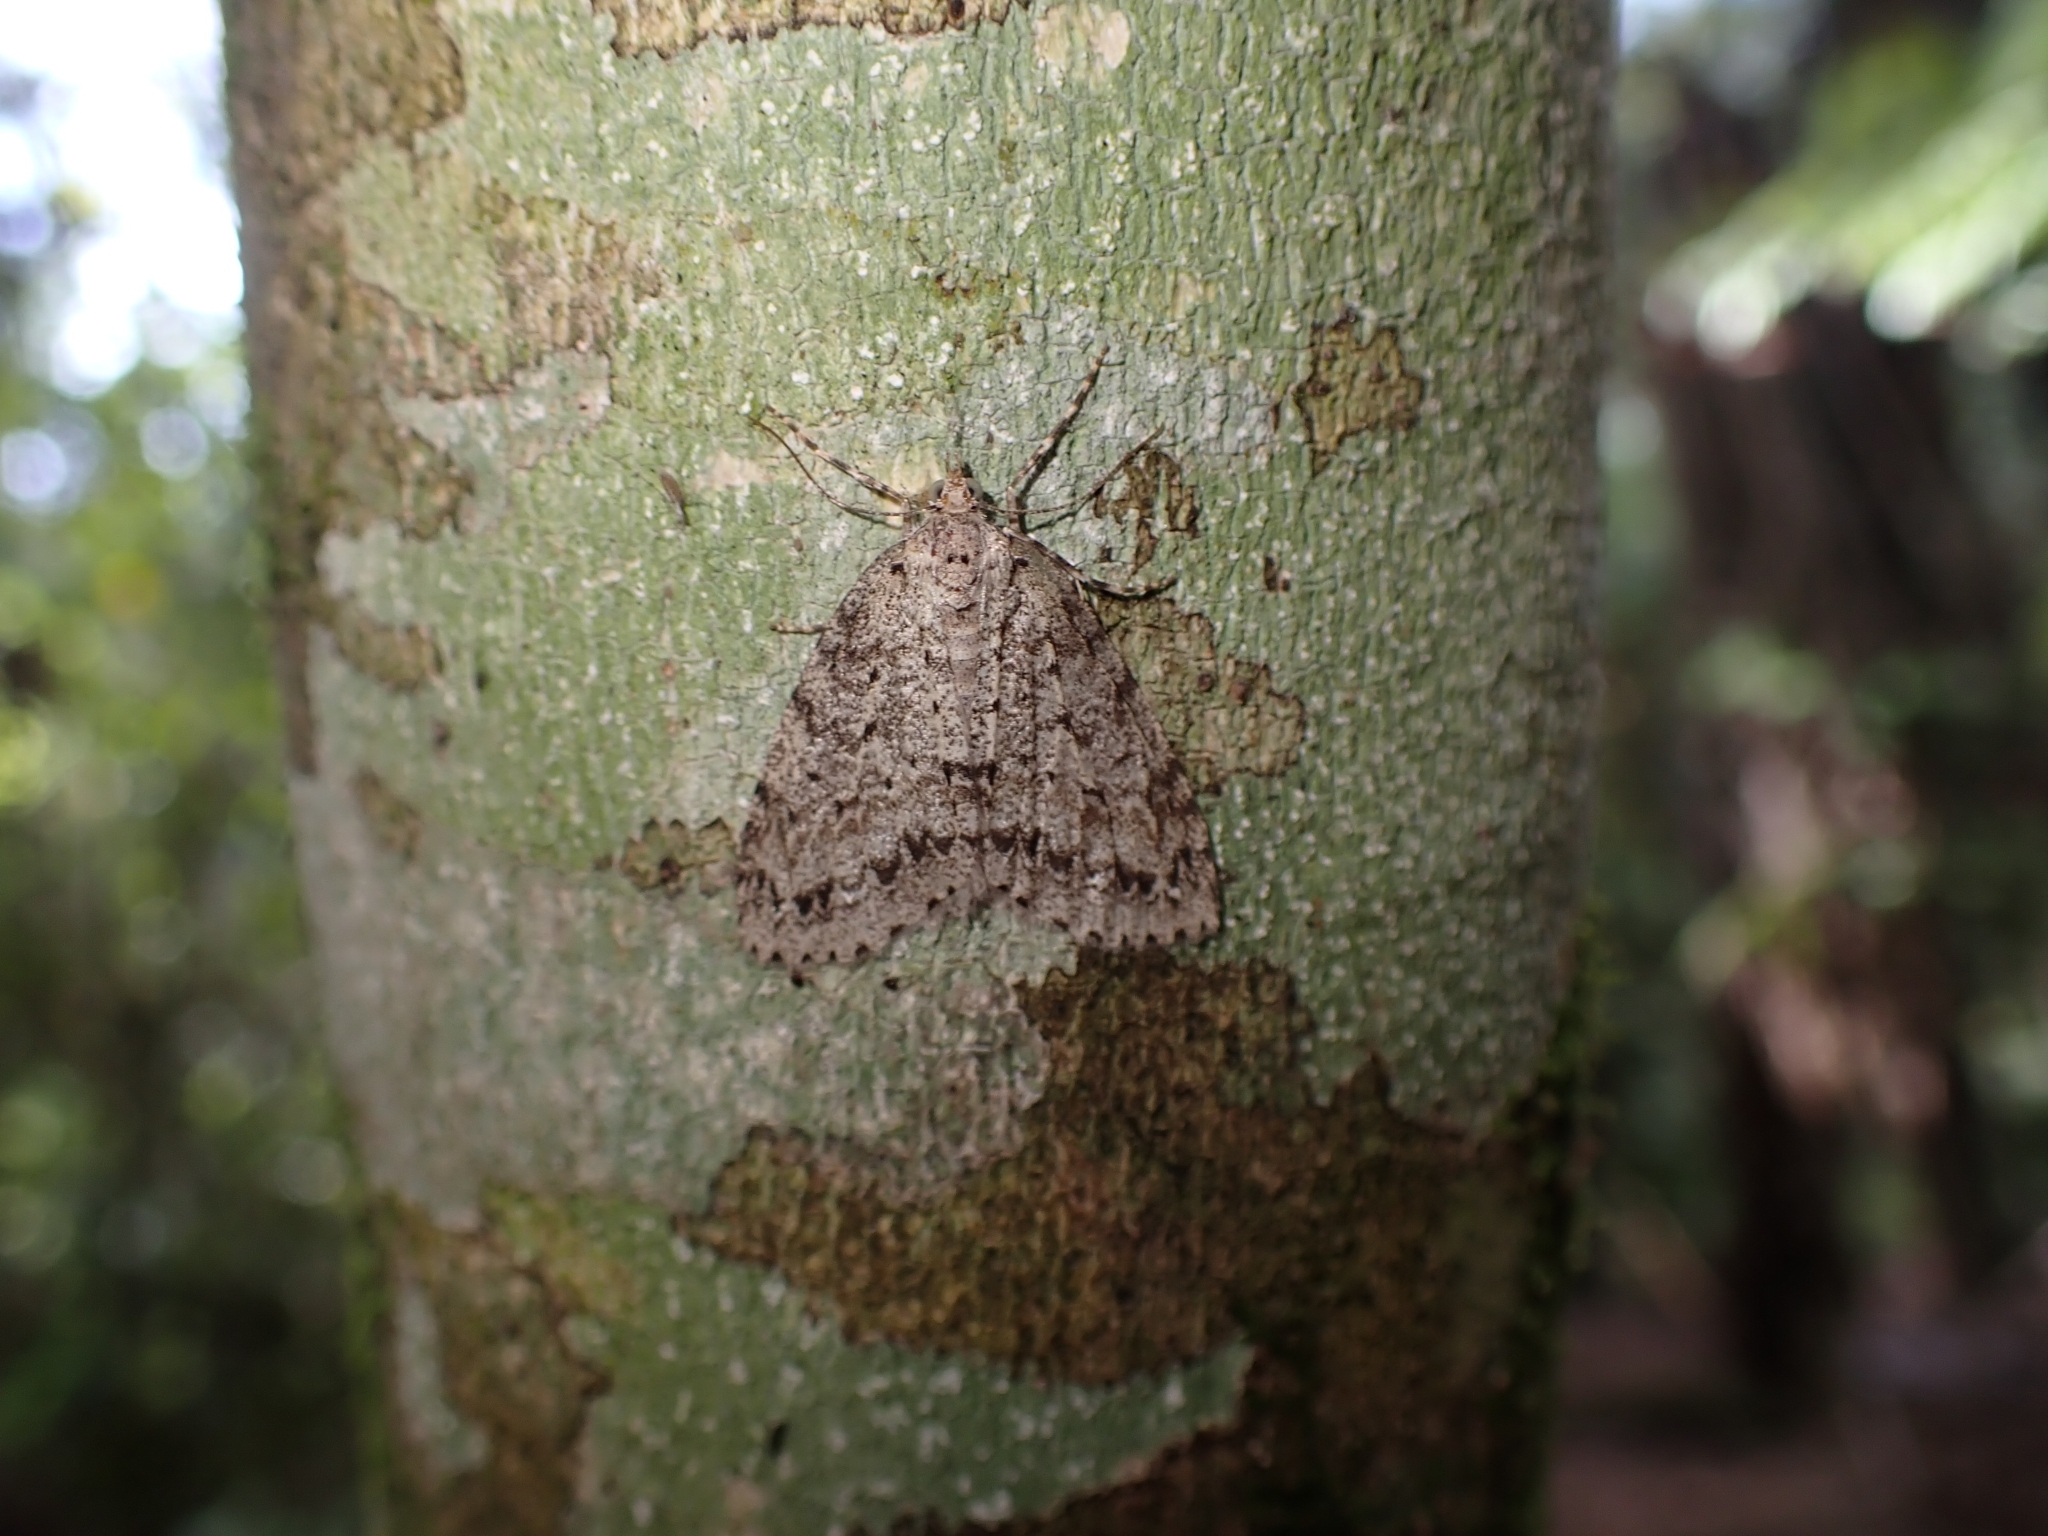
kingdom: Animalia
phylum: Arthropoda
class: Insecta
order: Lepidoptera
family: Geometridae
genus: Pseudocoremia
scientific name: Pseudocoremia fenerata
